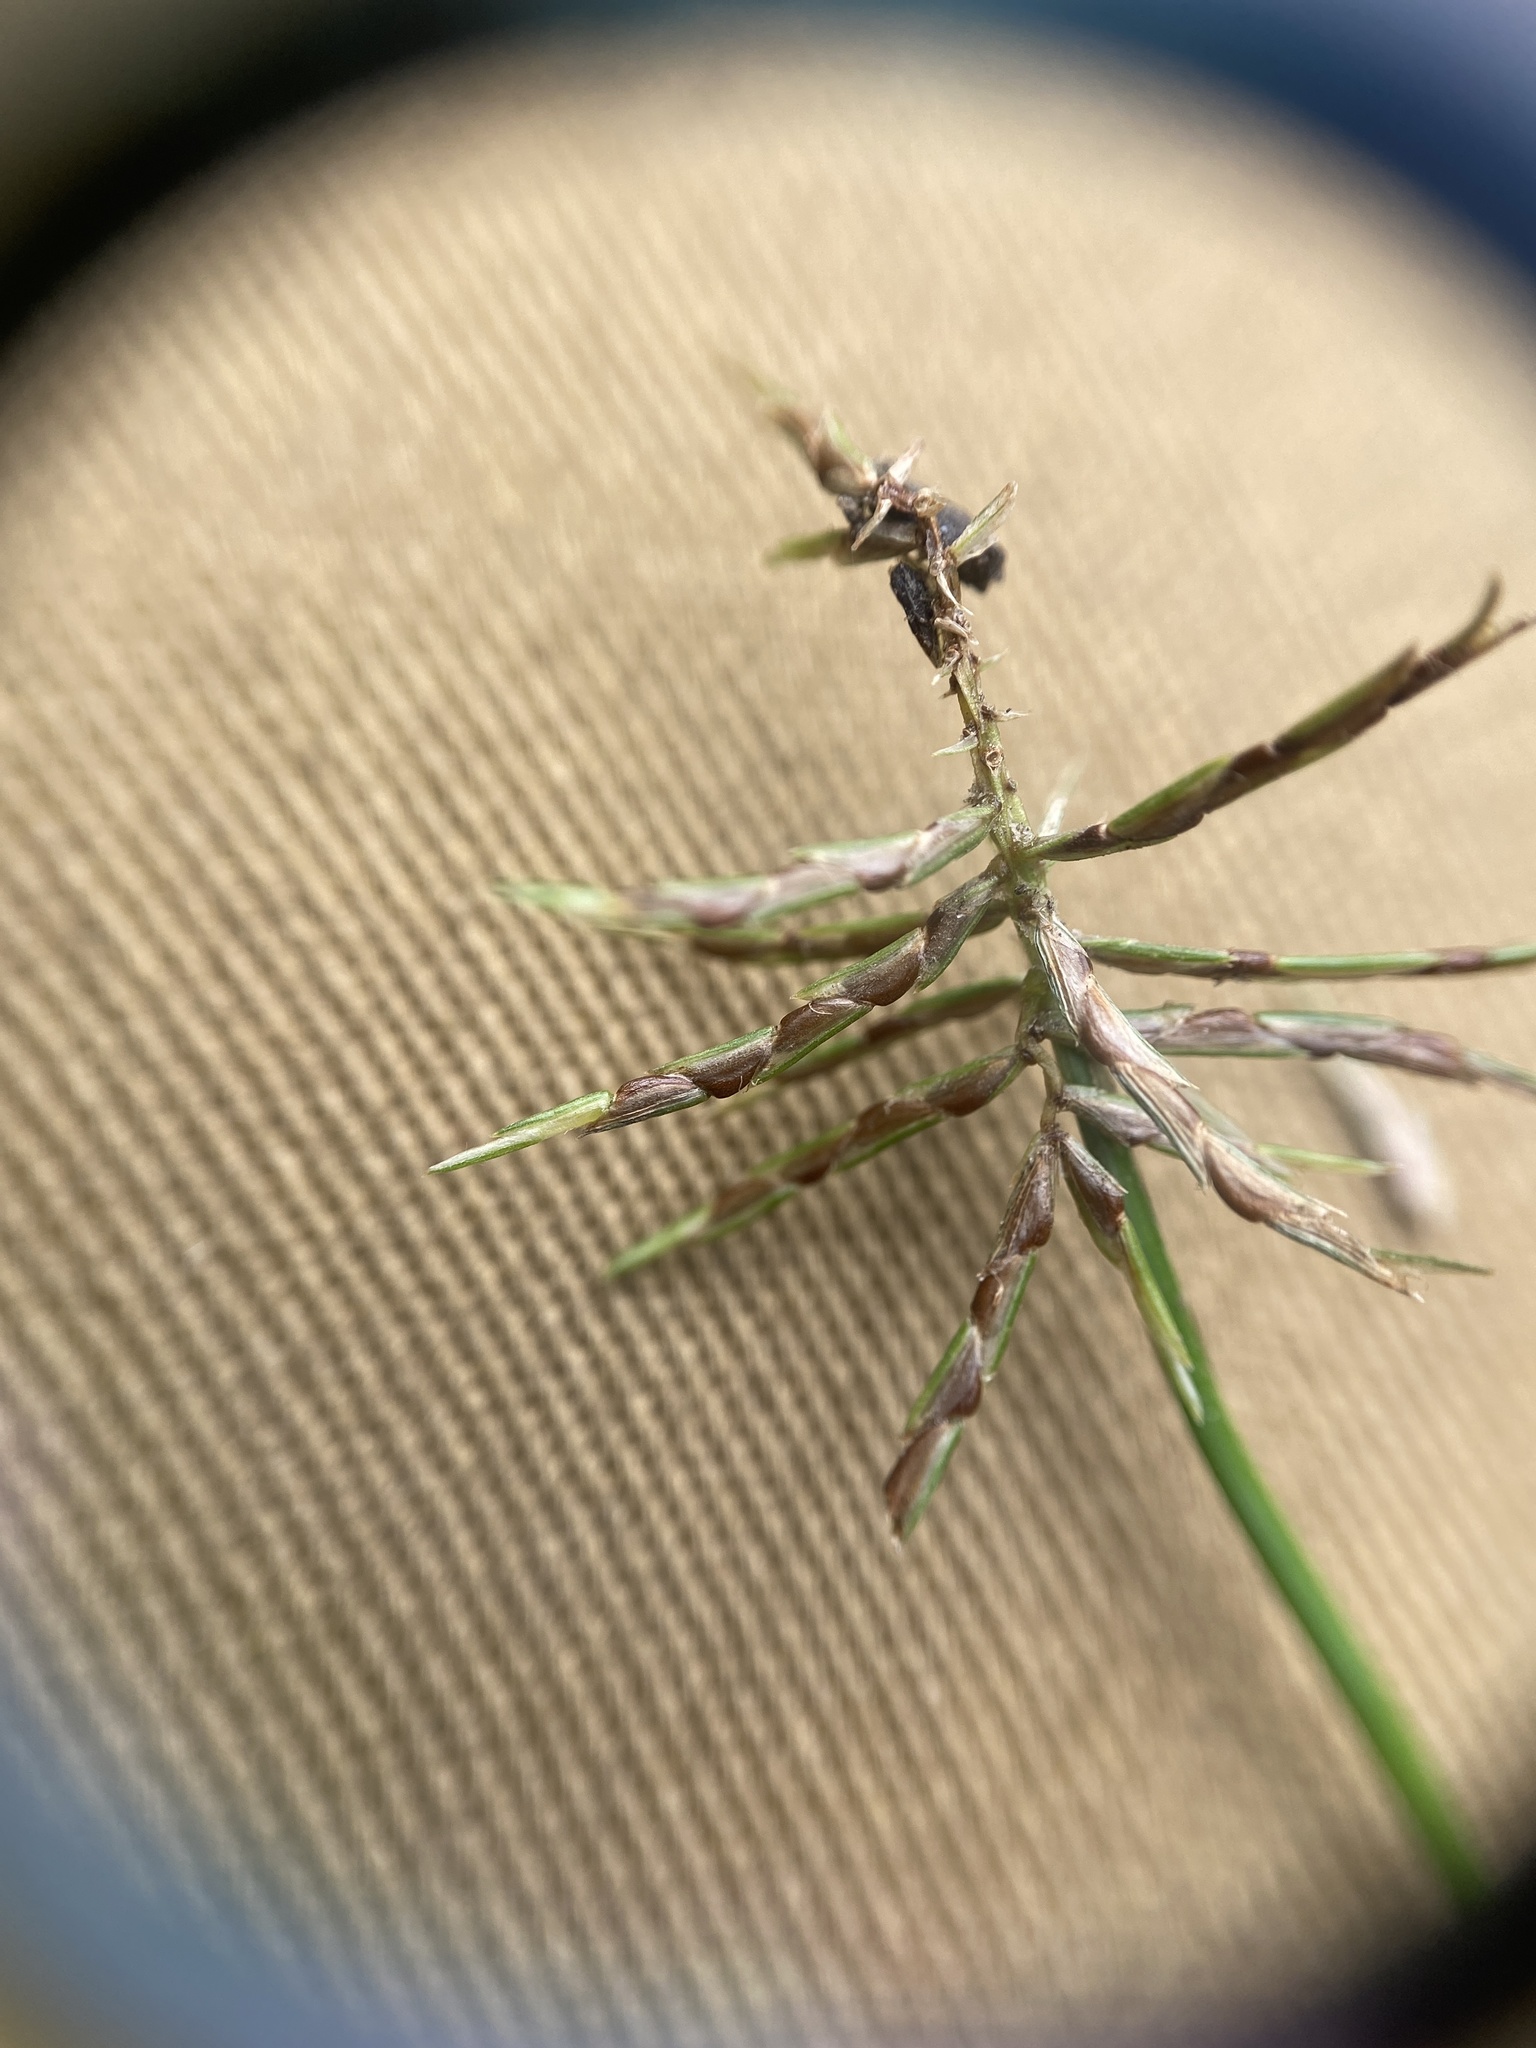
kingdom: Plantae
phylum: Tracheophyta
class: Liliopsida
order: Poales
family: Cyperaceae
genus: Cyperus
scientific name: Cyperus odoratus
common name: Fragrant flatsedge
